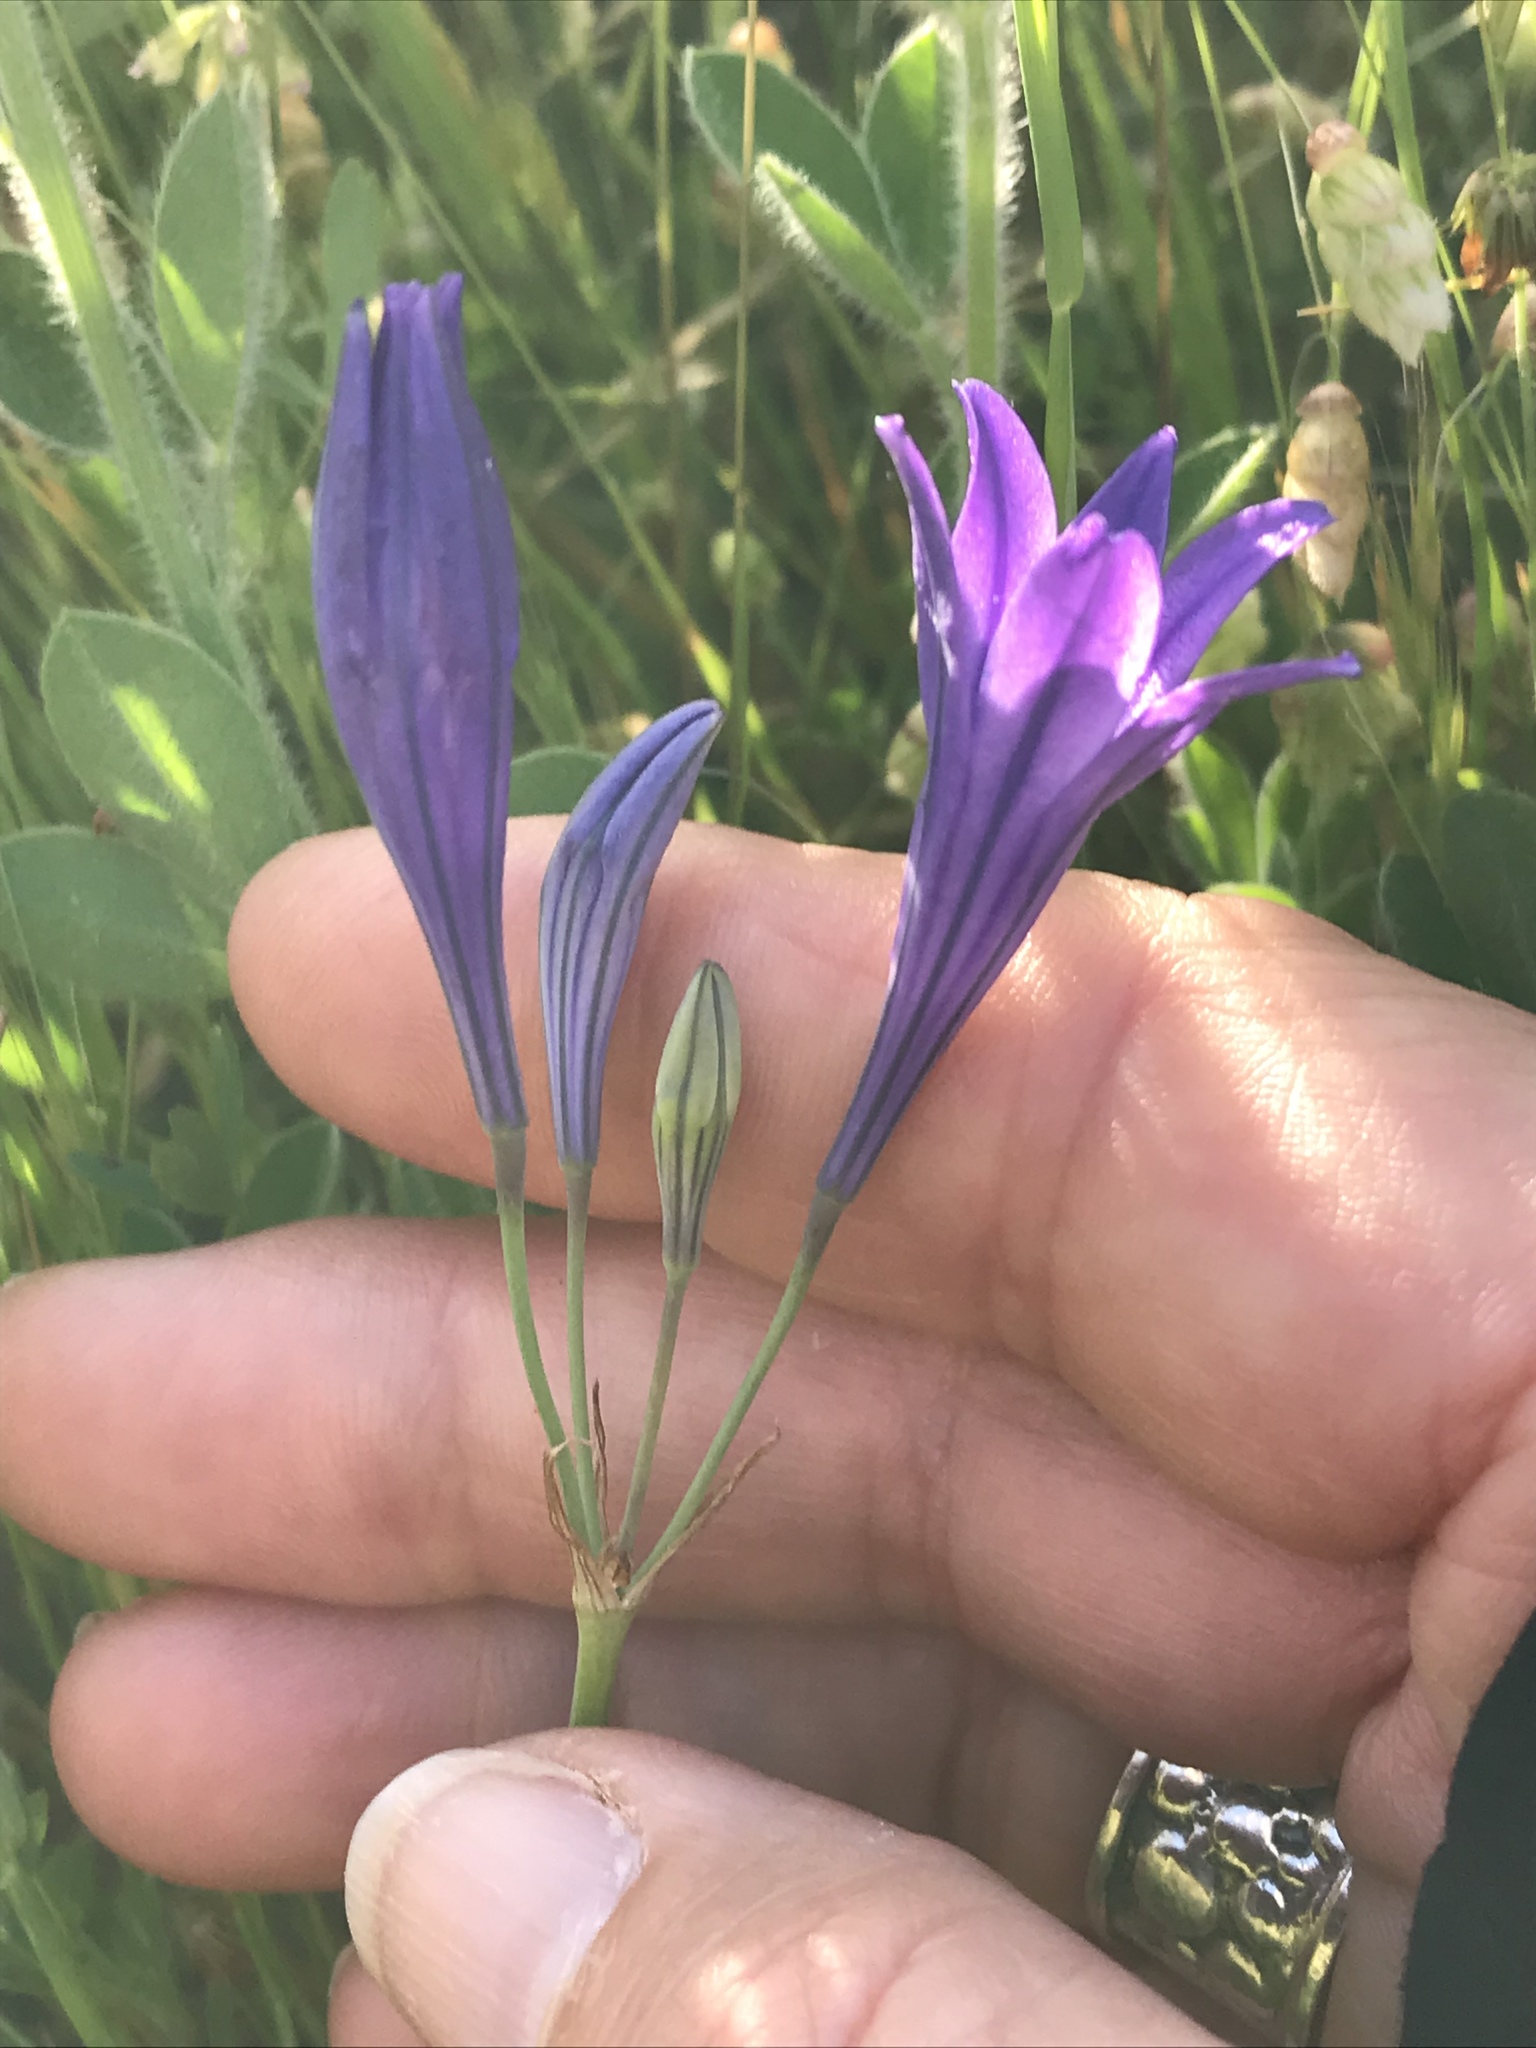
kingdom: Plantae
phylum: Tracheophyta
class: Liliopsida
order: Asparagales
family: Asparagaceae
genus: Triteleia
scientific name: Triteleia laxa
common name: Triplet-lily
